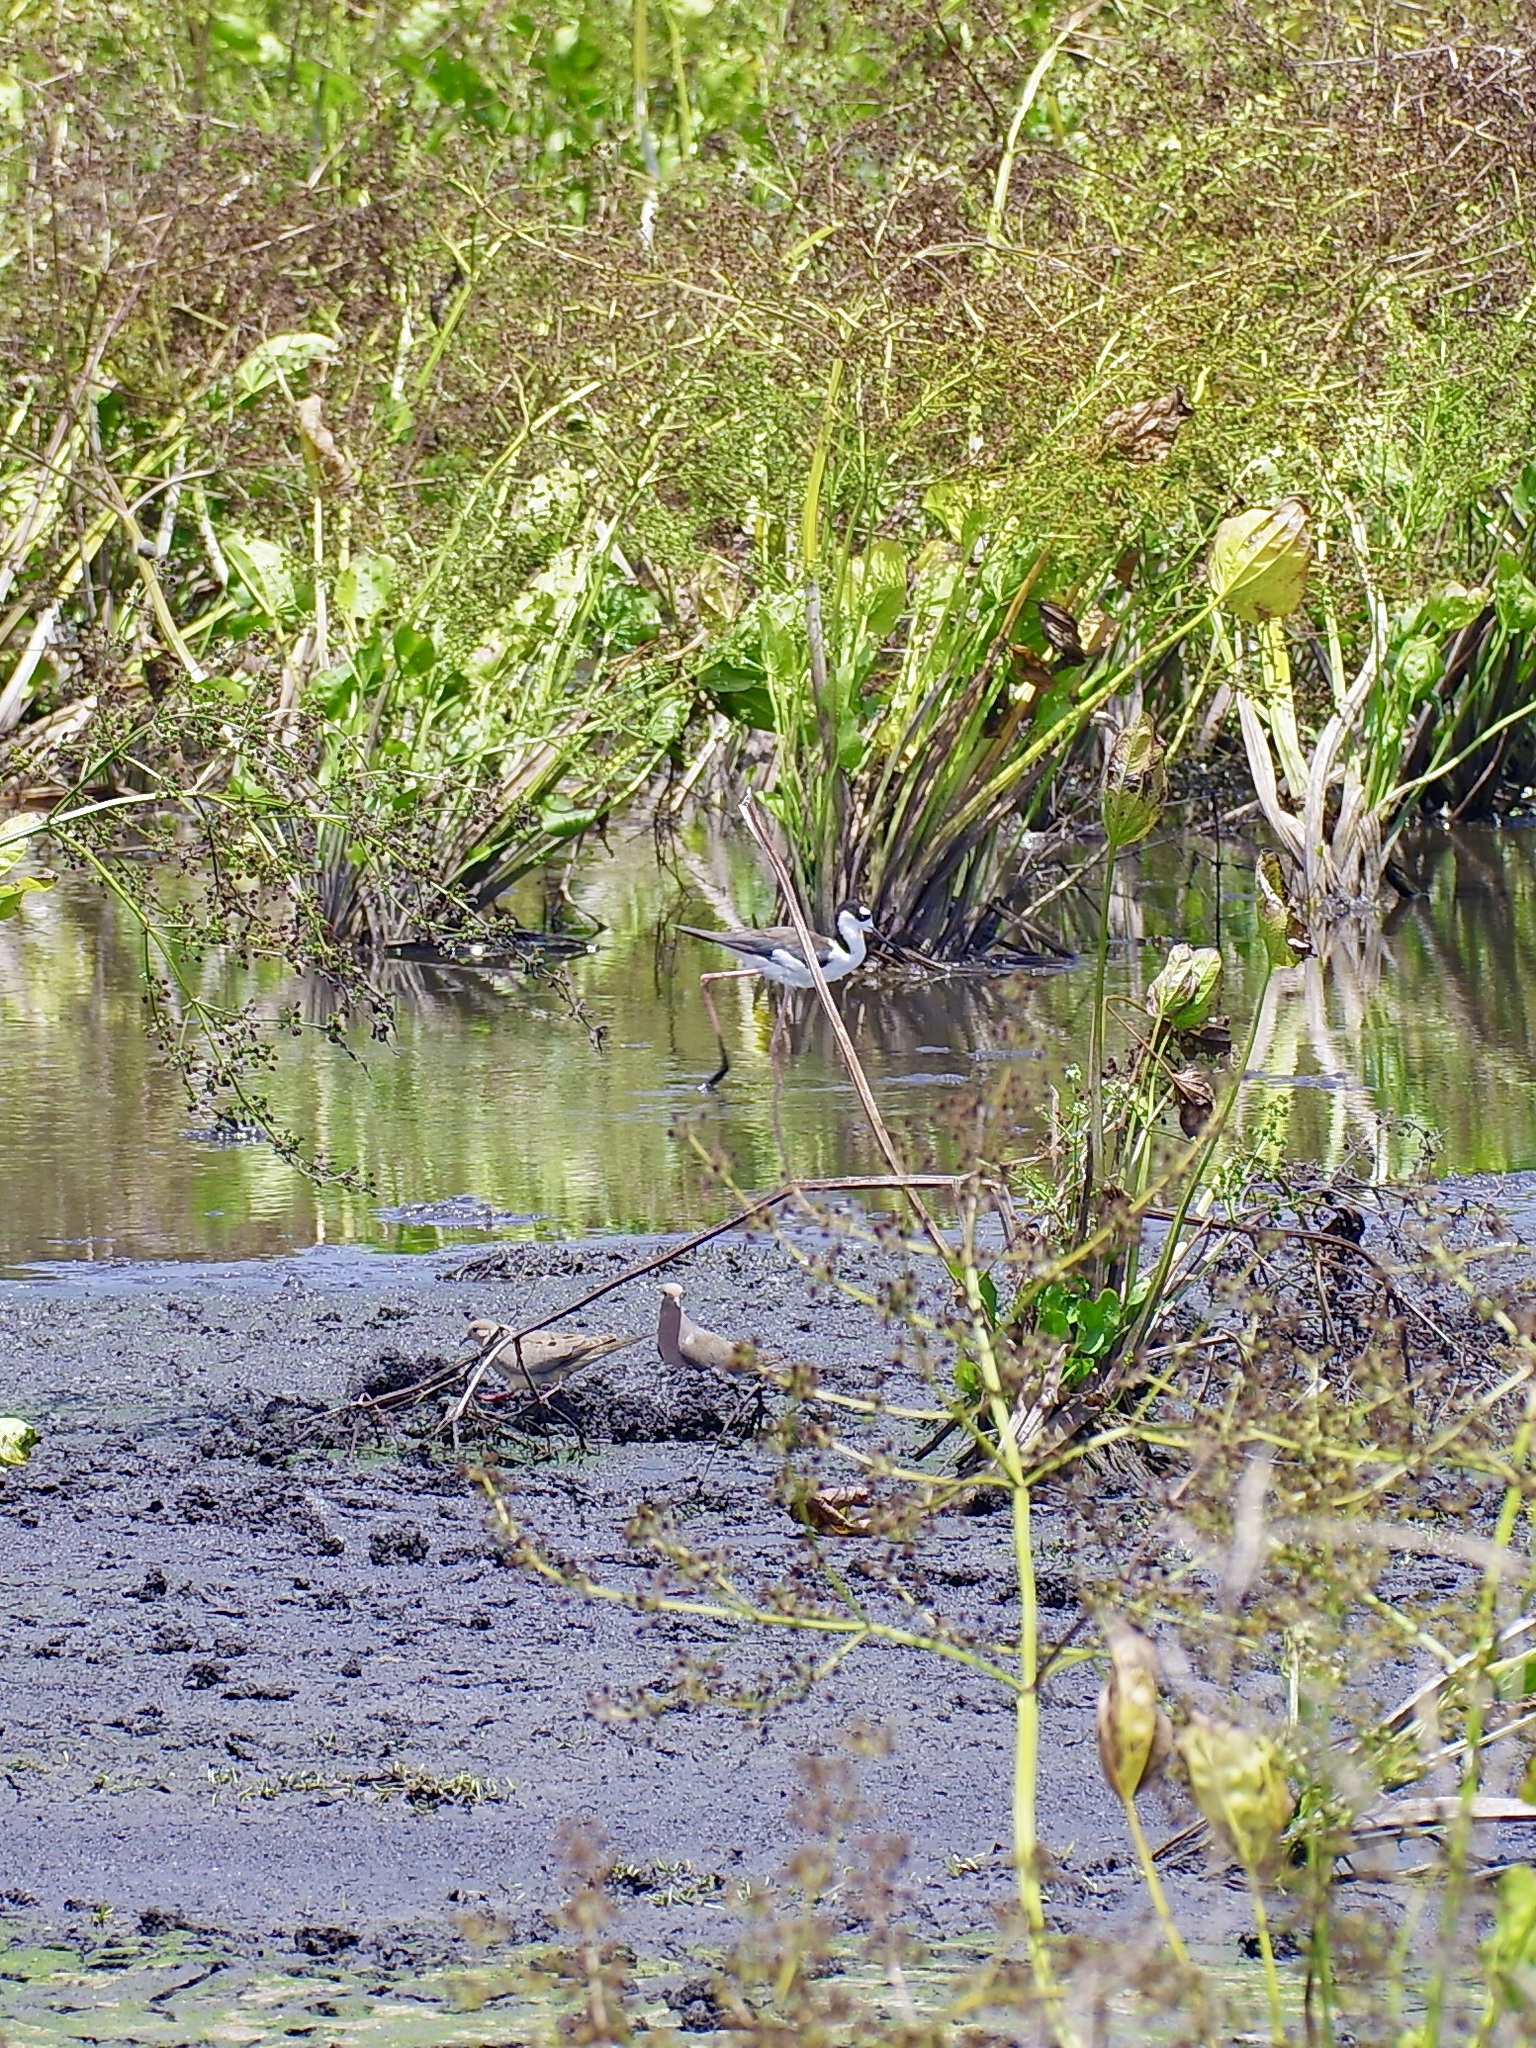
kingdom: Animalia
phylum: Chordata
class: Aves
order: Charadriiformes
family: Recurvirostridae
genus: Himantopus
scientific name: Himantopus mexicanus
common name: Black-necked stilt
